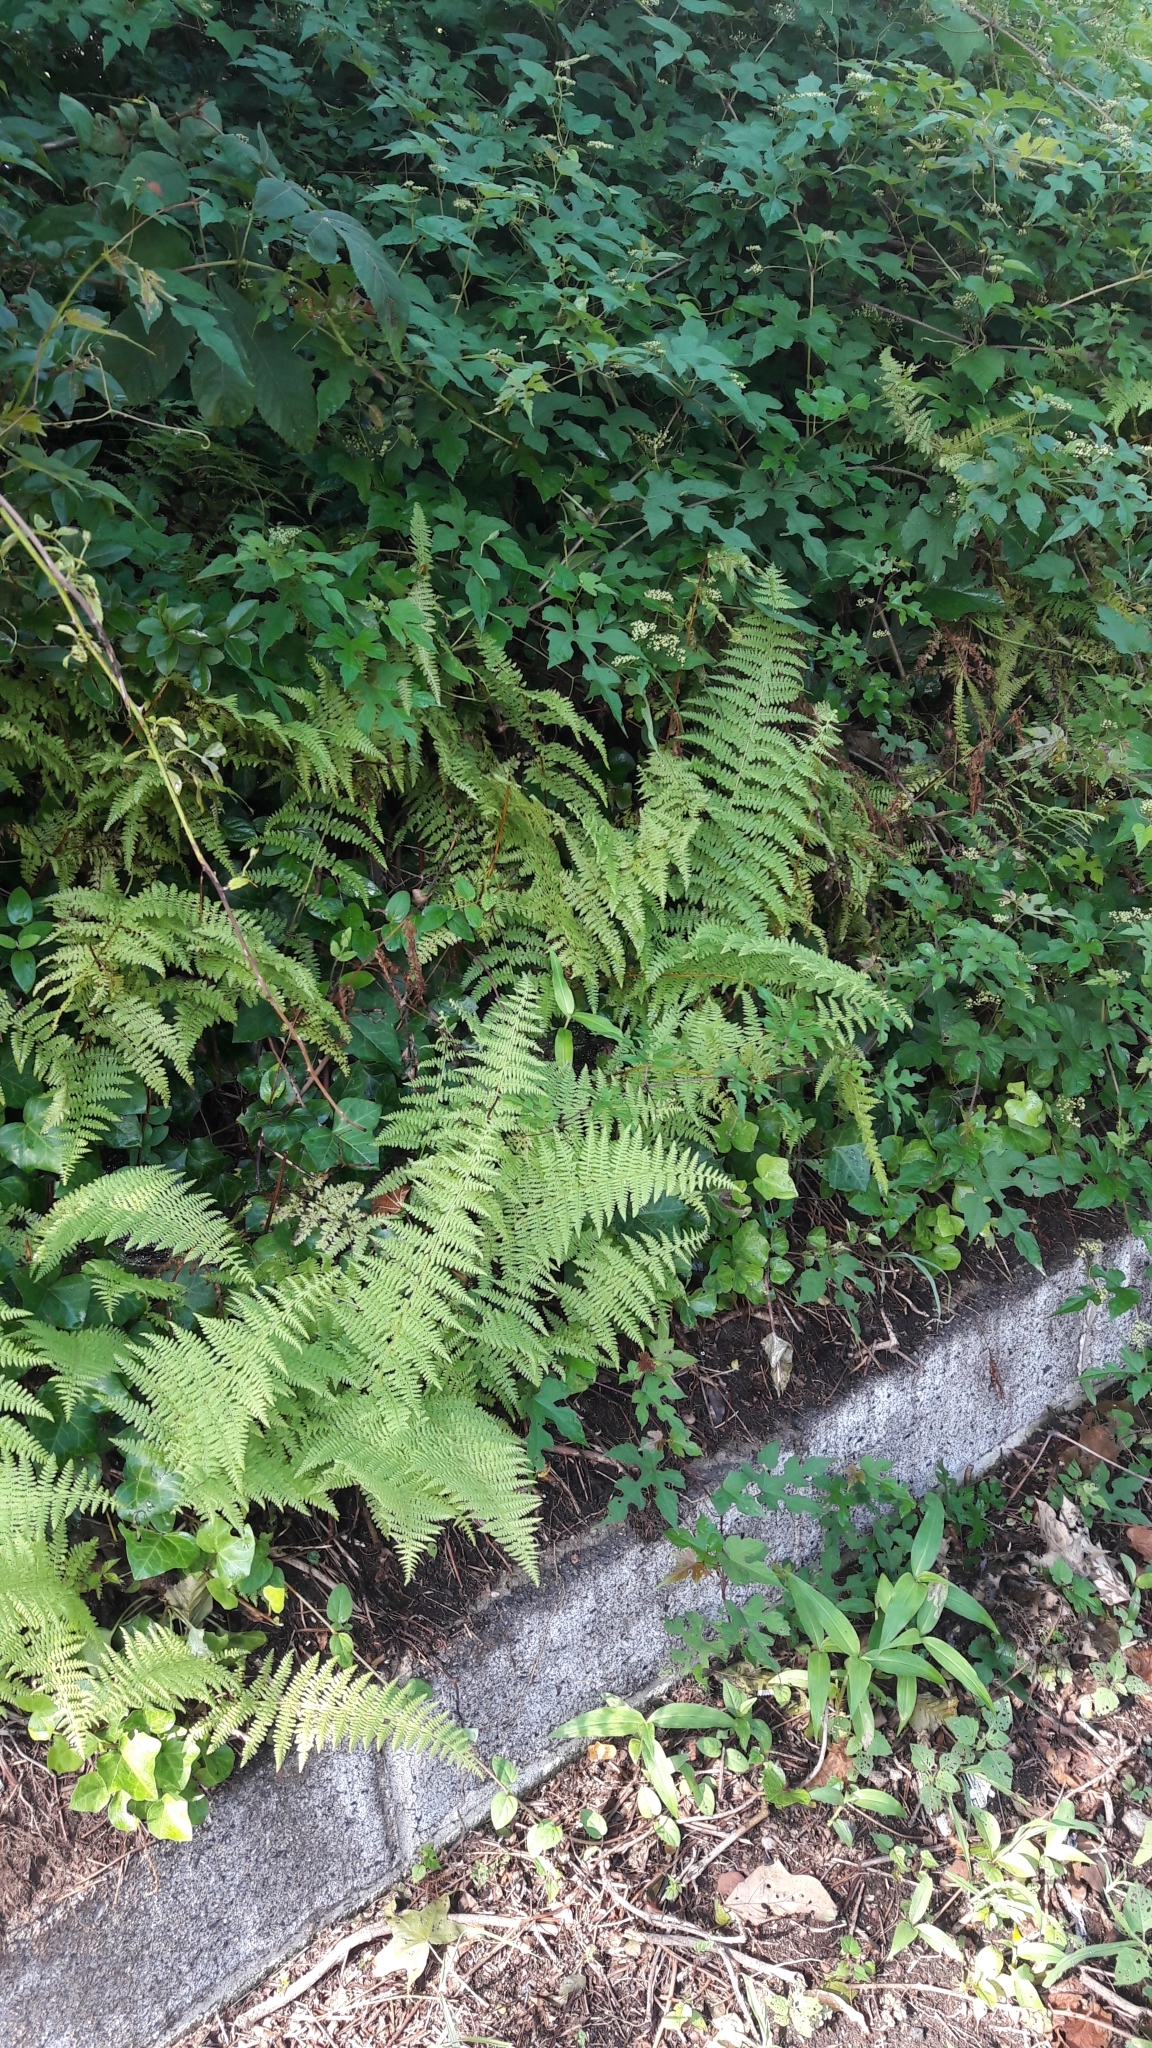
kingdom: Plantae
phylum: Tracheophyta
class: Polypodiopsida
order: Polypodiales
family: Dennstaedtiaceae
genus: Sitobolium
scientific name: Sitobolium punctilobum
